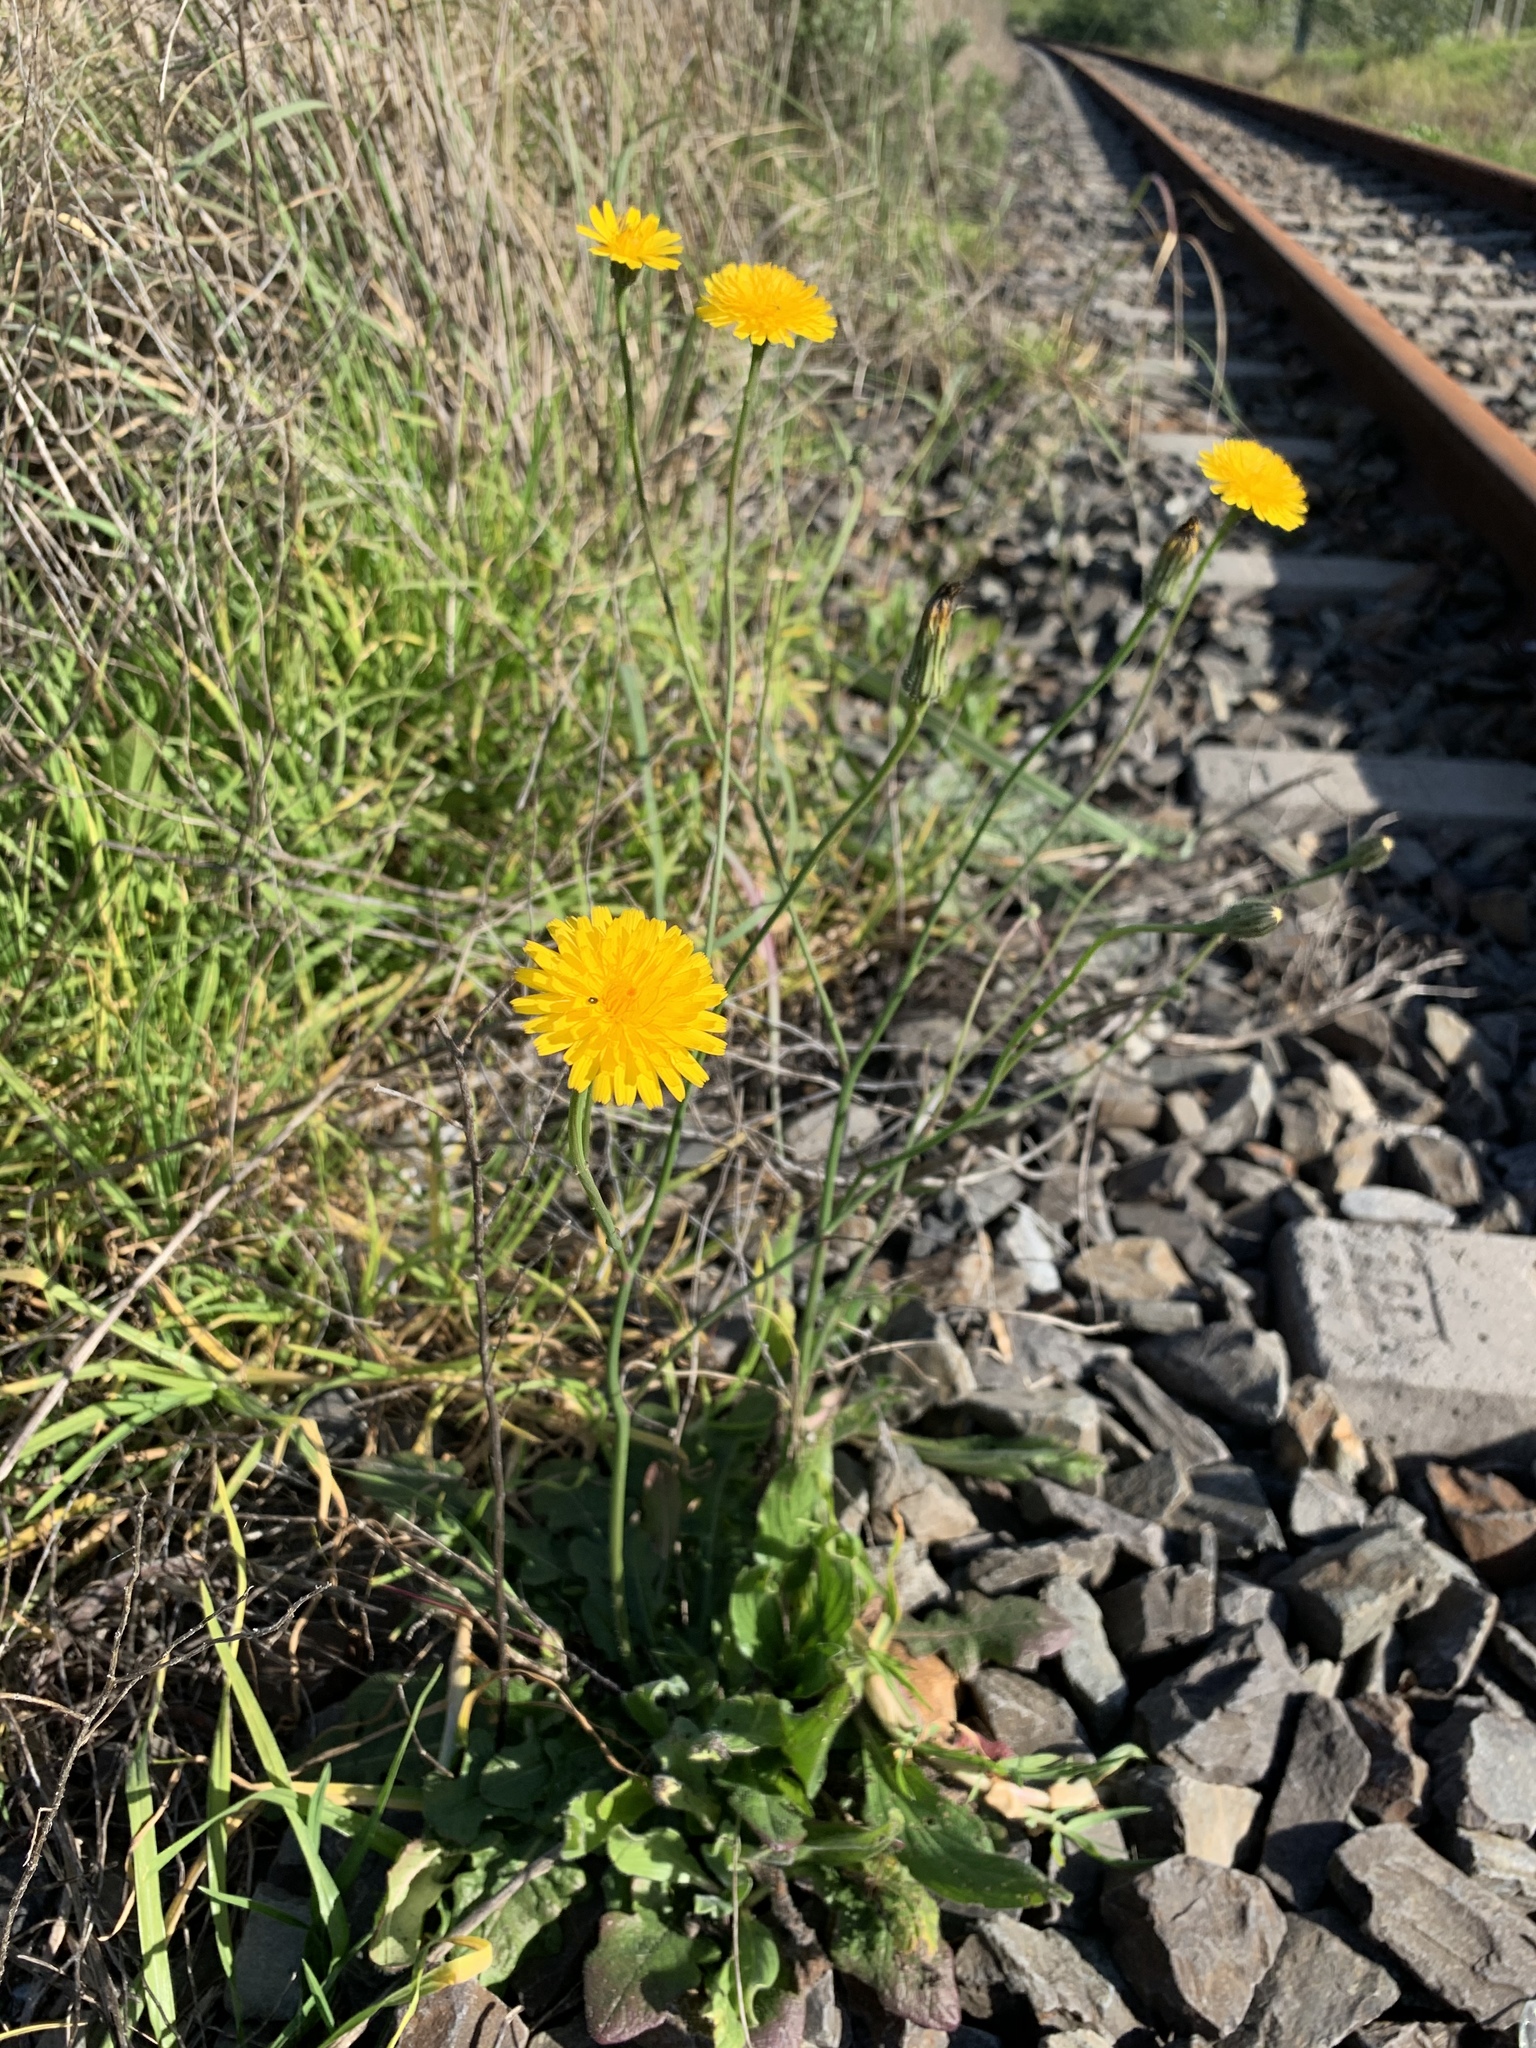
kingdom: Plantae
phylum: Tracheophyta
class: Magnoliopsida
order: Asterales
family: Asteraceae
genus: Hypochaeris
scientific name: Hypochaeris radicata
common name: Flatweed
